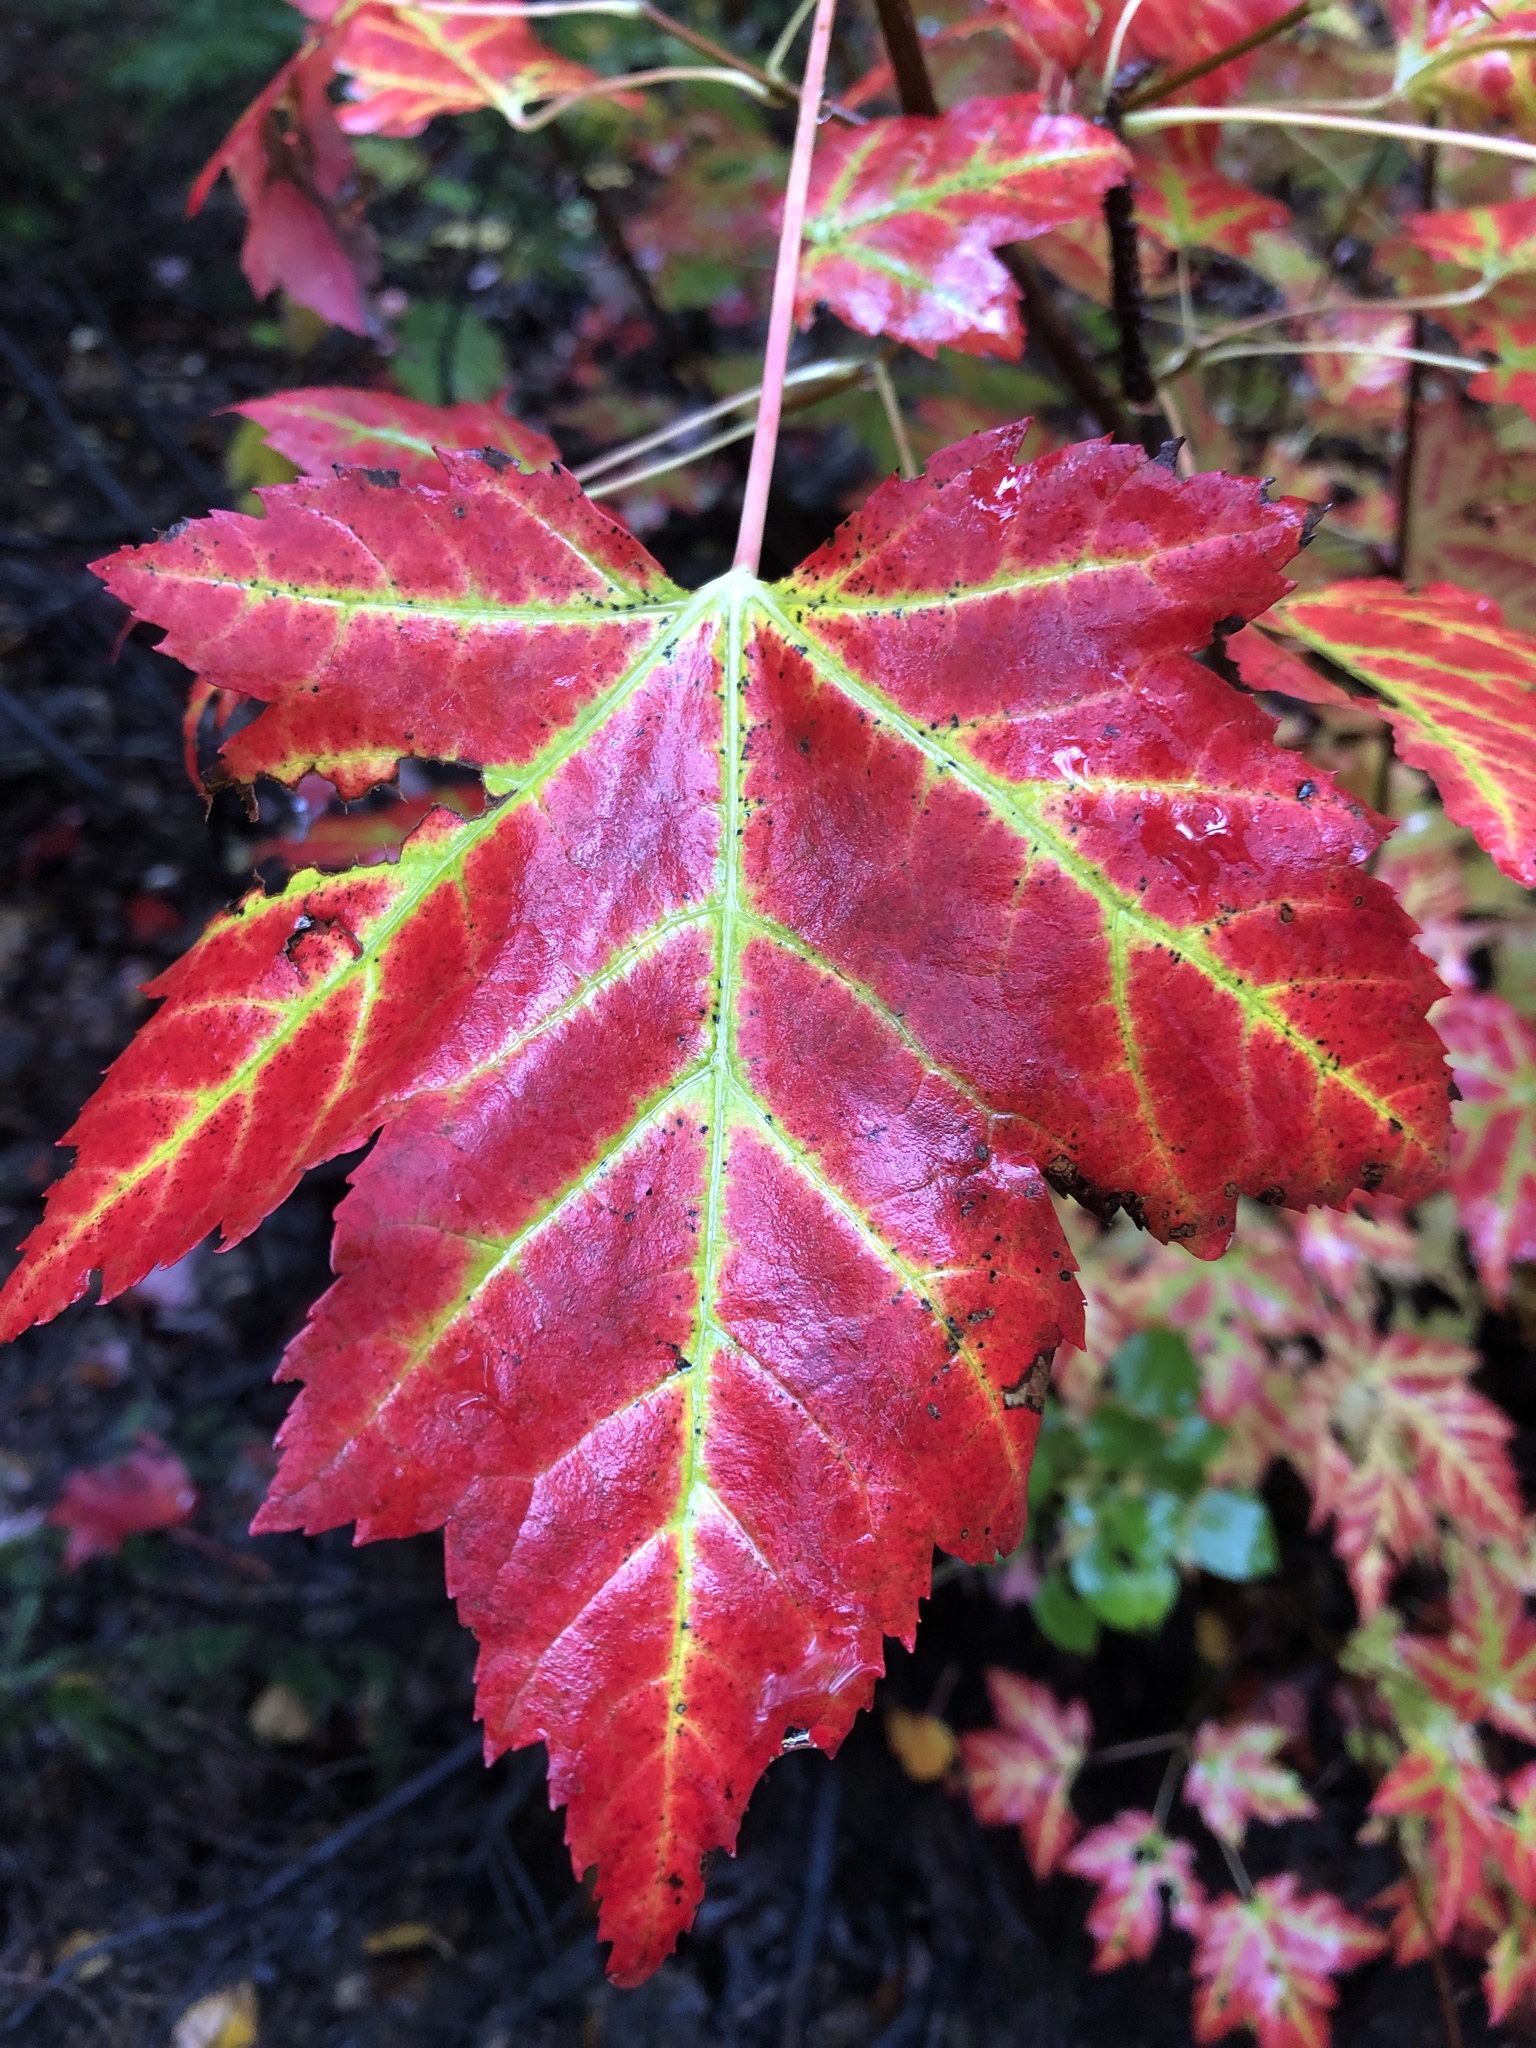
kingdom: Plantae
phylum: Tracheophyta
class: Magnoliopsida
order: Sapindales
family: Sapindaceae
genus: Acer
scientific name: Acer freemanii
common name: Freeman maple
